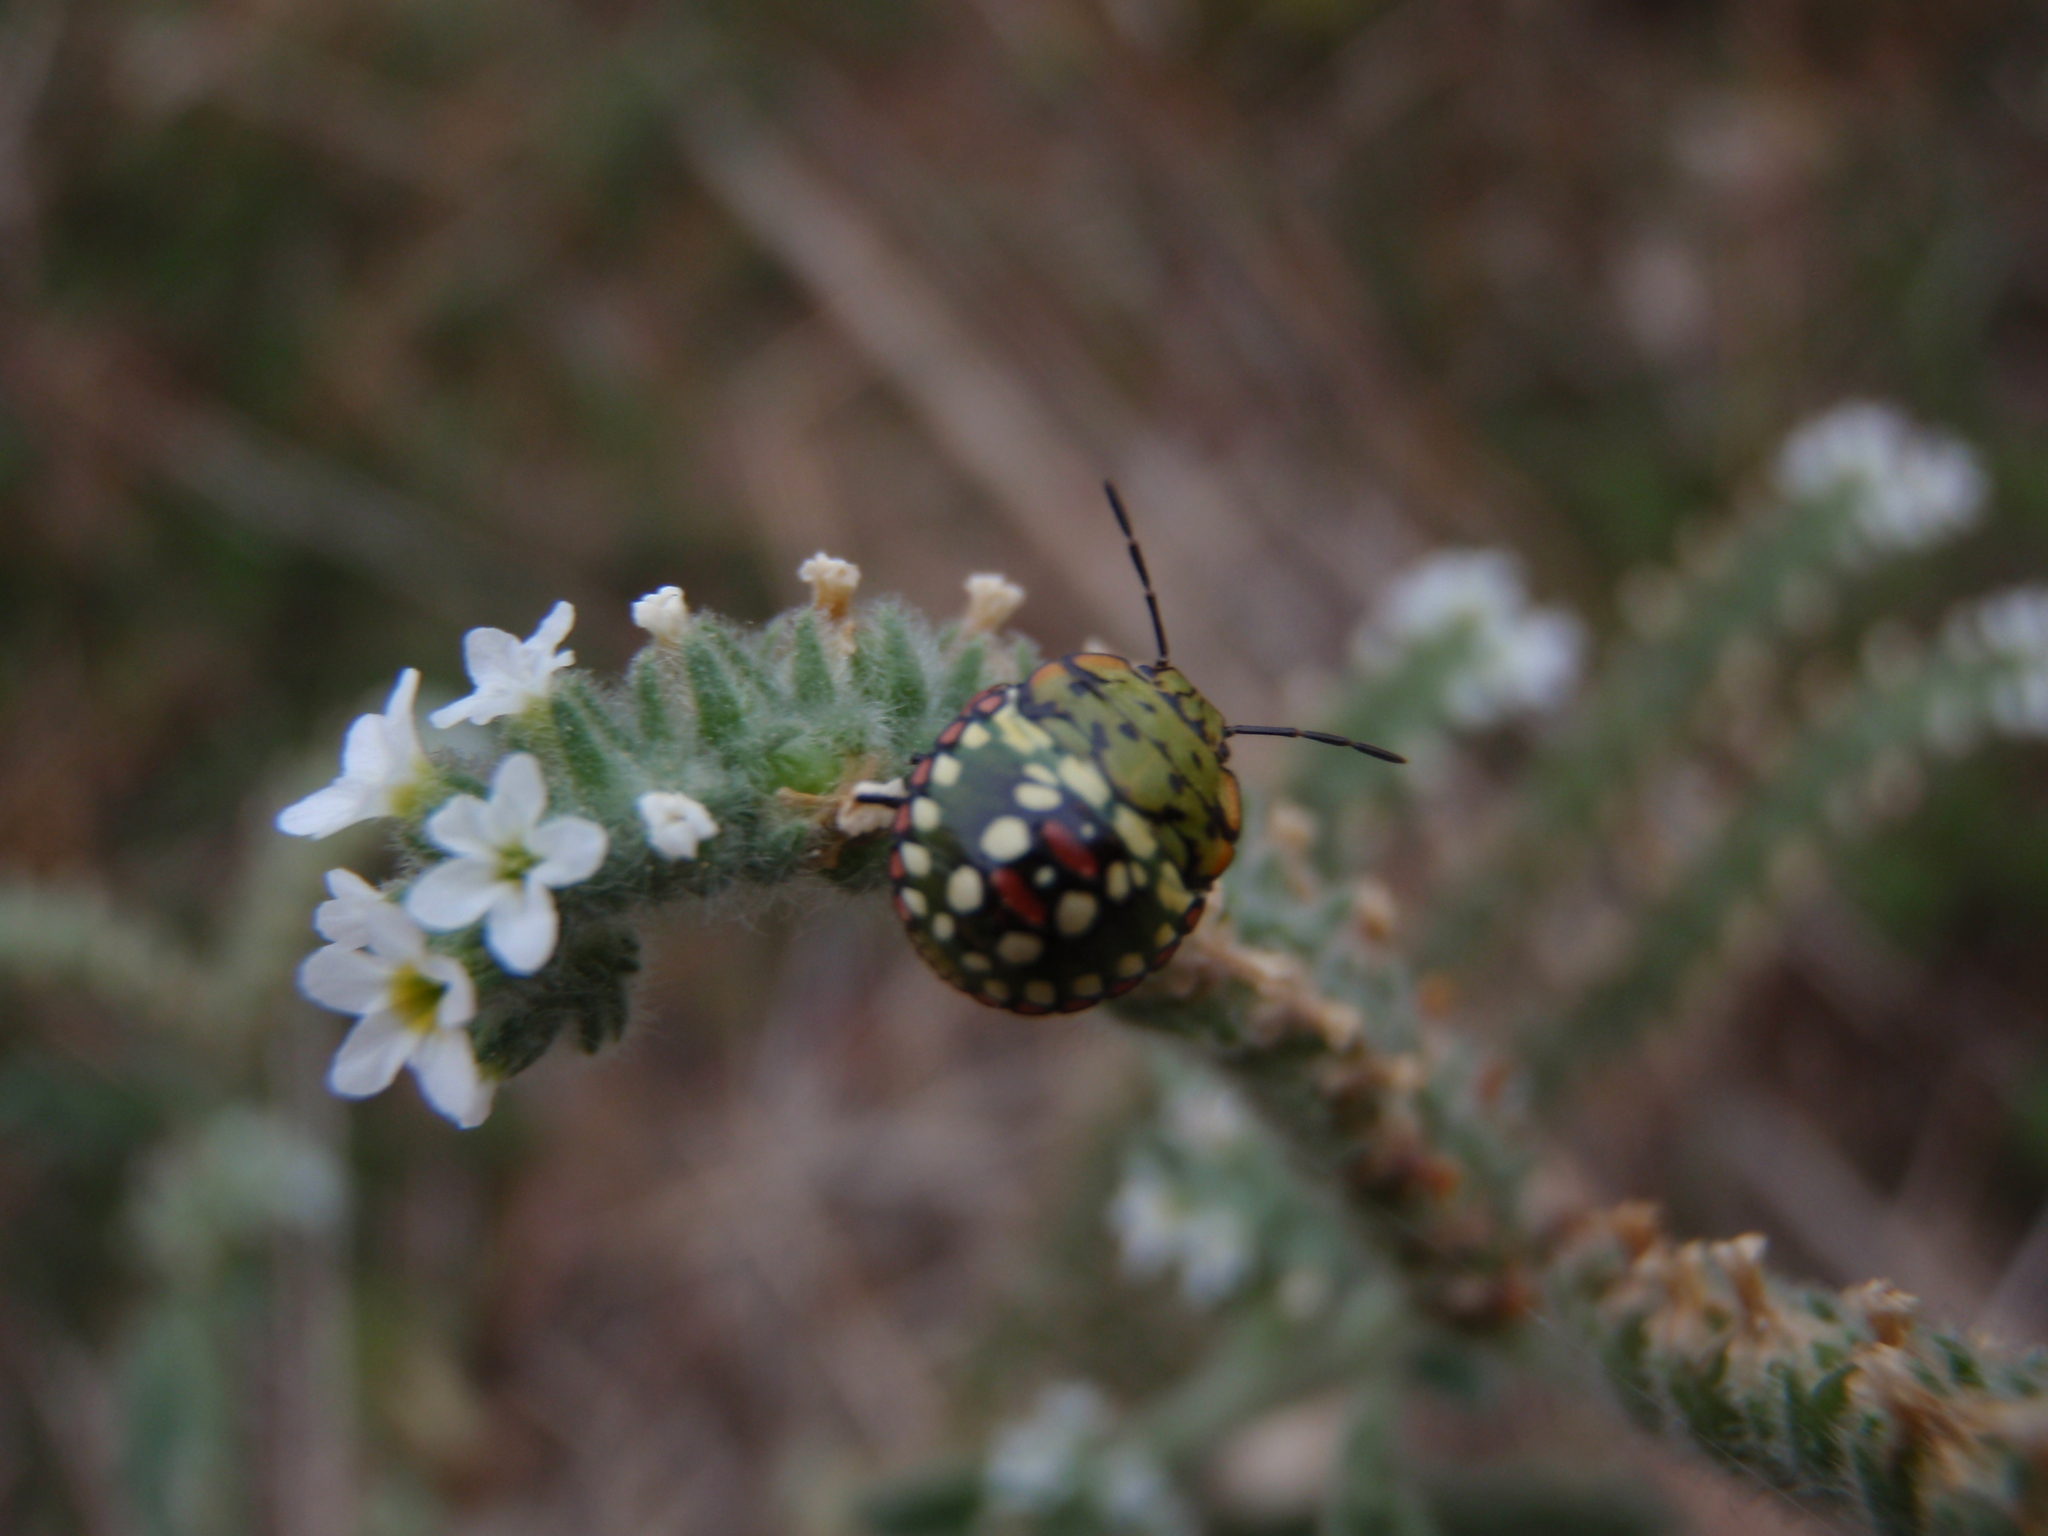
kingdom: Animalia
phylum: Arthropoda
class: Insecta
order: Hemiptera
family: Pentatomidae
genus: Nezara
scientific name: Nezara viridula
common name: Southern green stink bug
